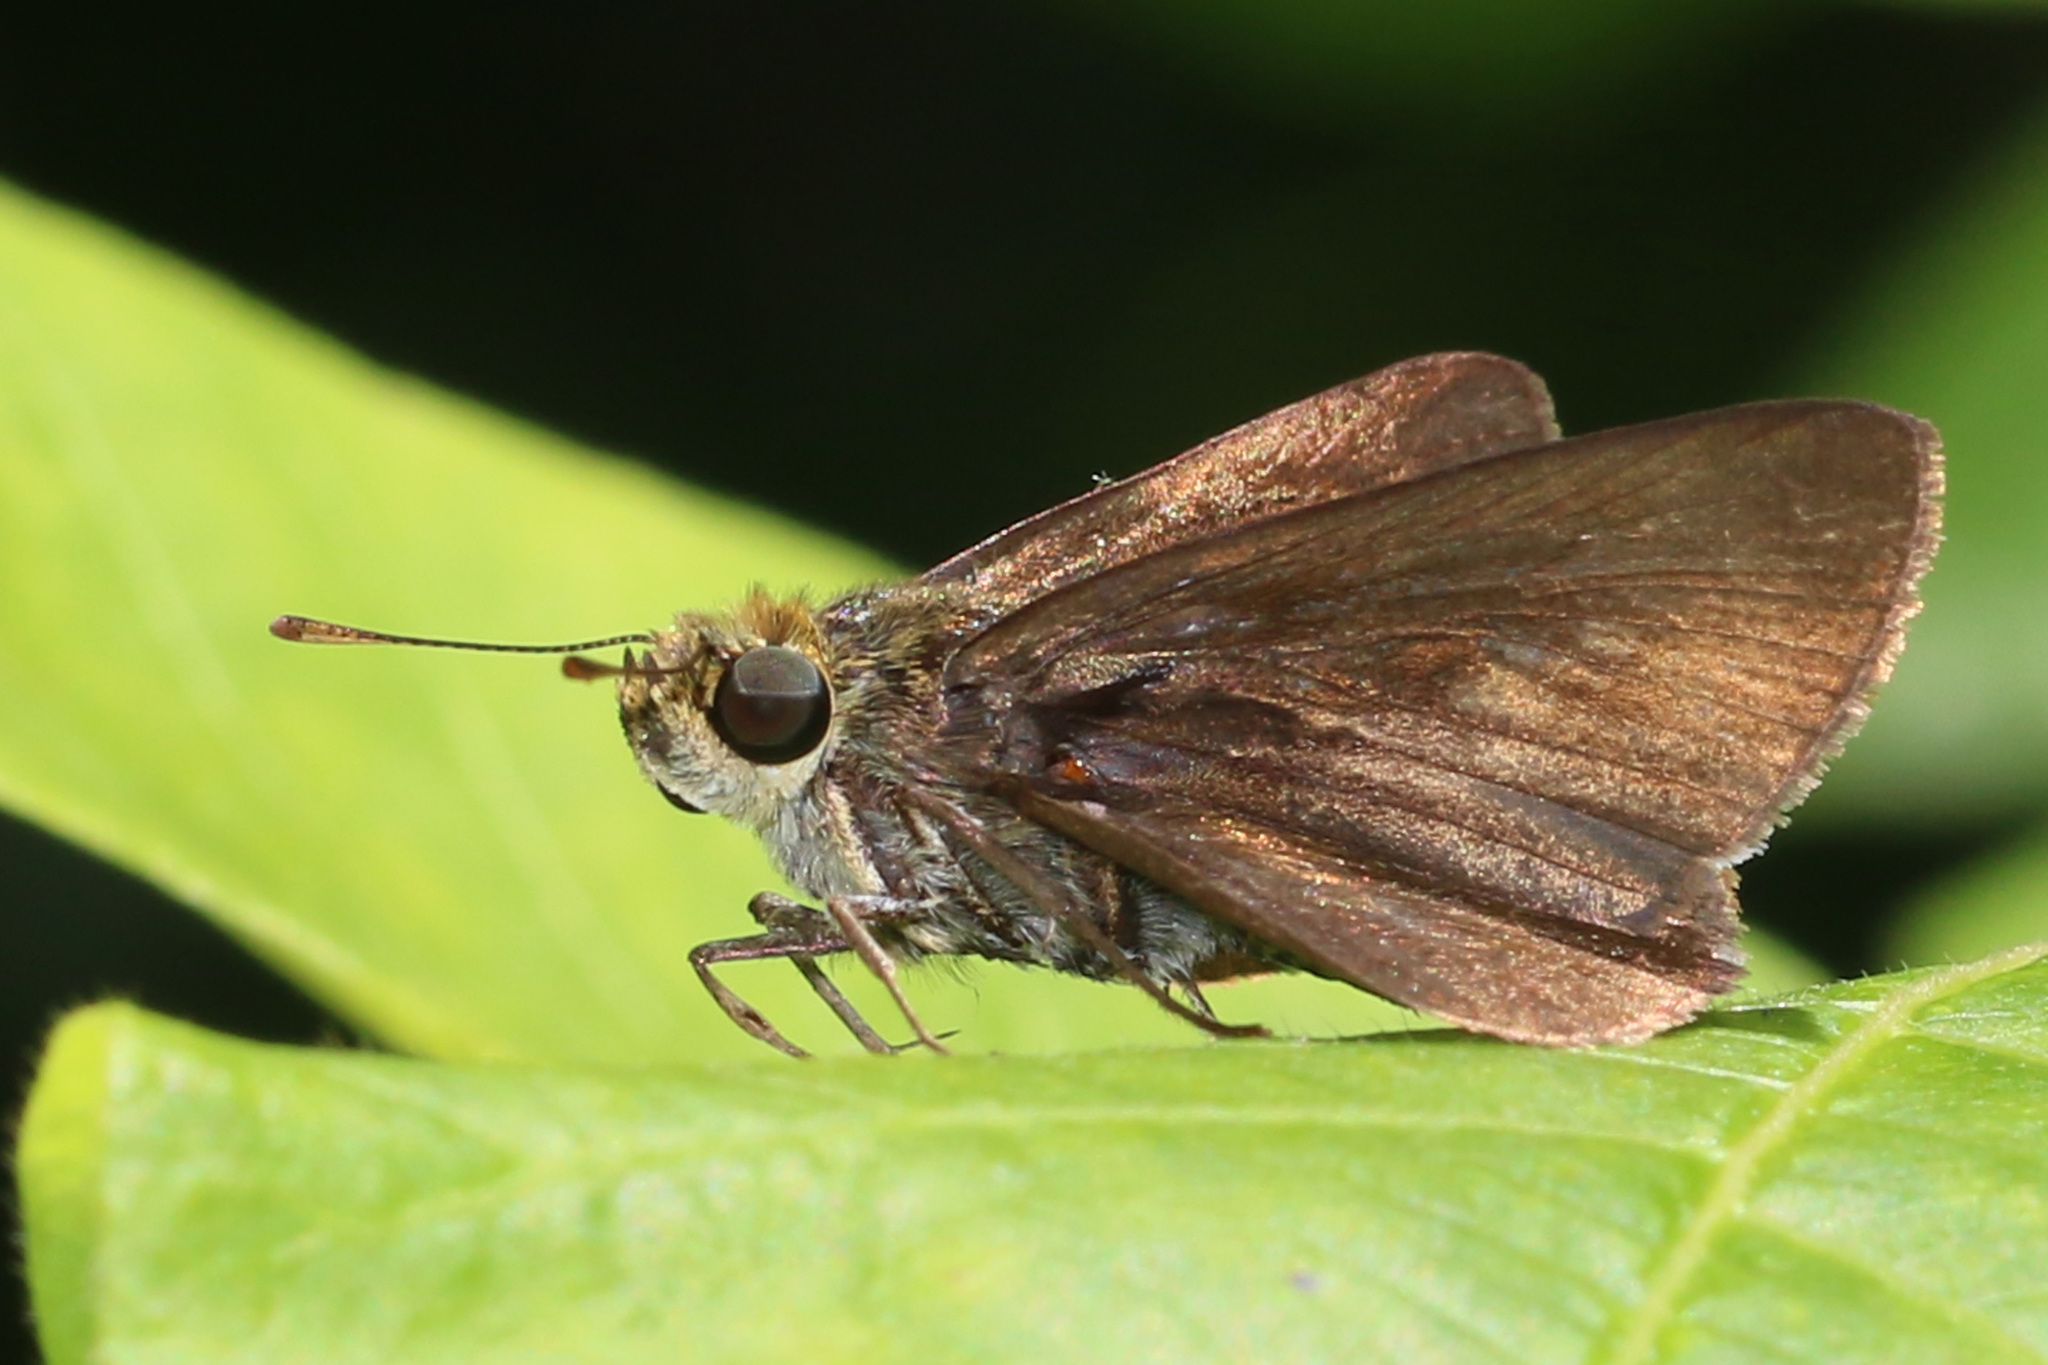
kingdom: Animalia
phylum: Arthropoda
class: Insecta
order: Lepidoptera
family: Hesperiidae
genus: Euphyes
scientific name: Euphyes vestris
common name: Dun skipper
